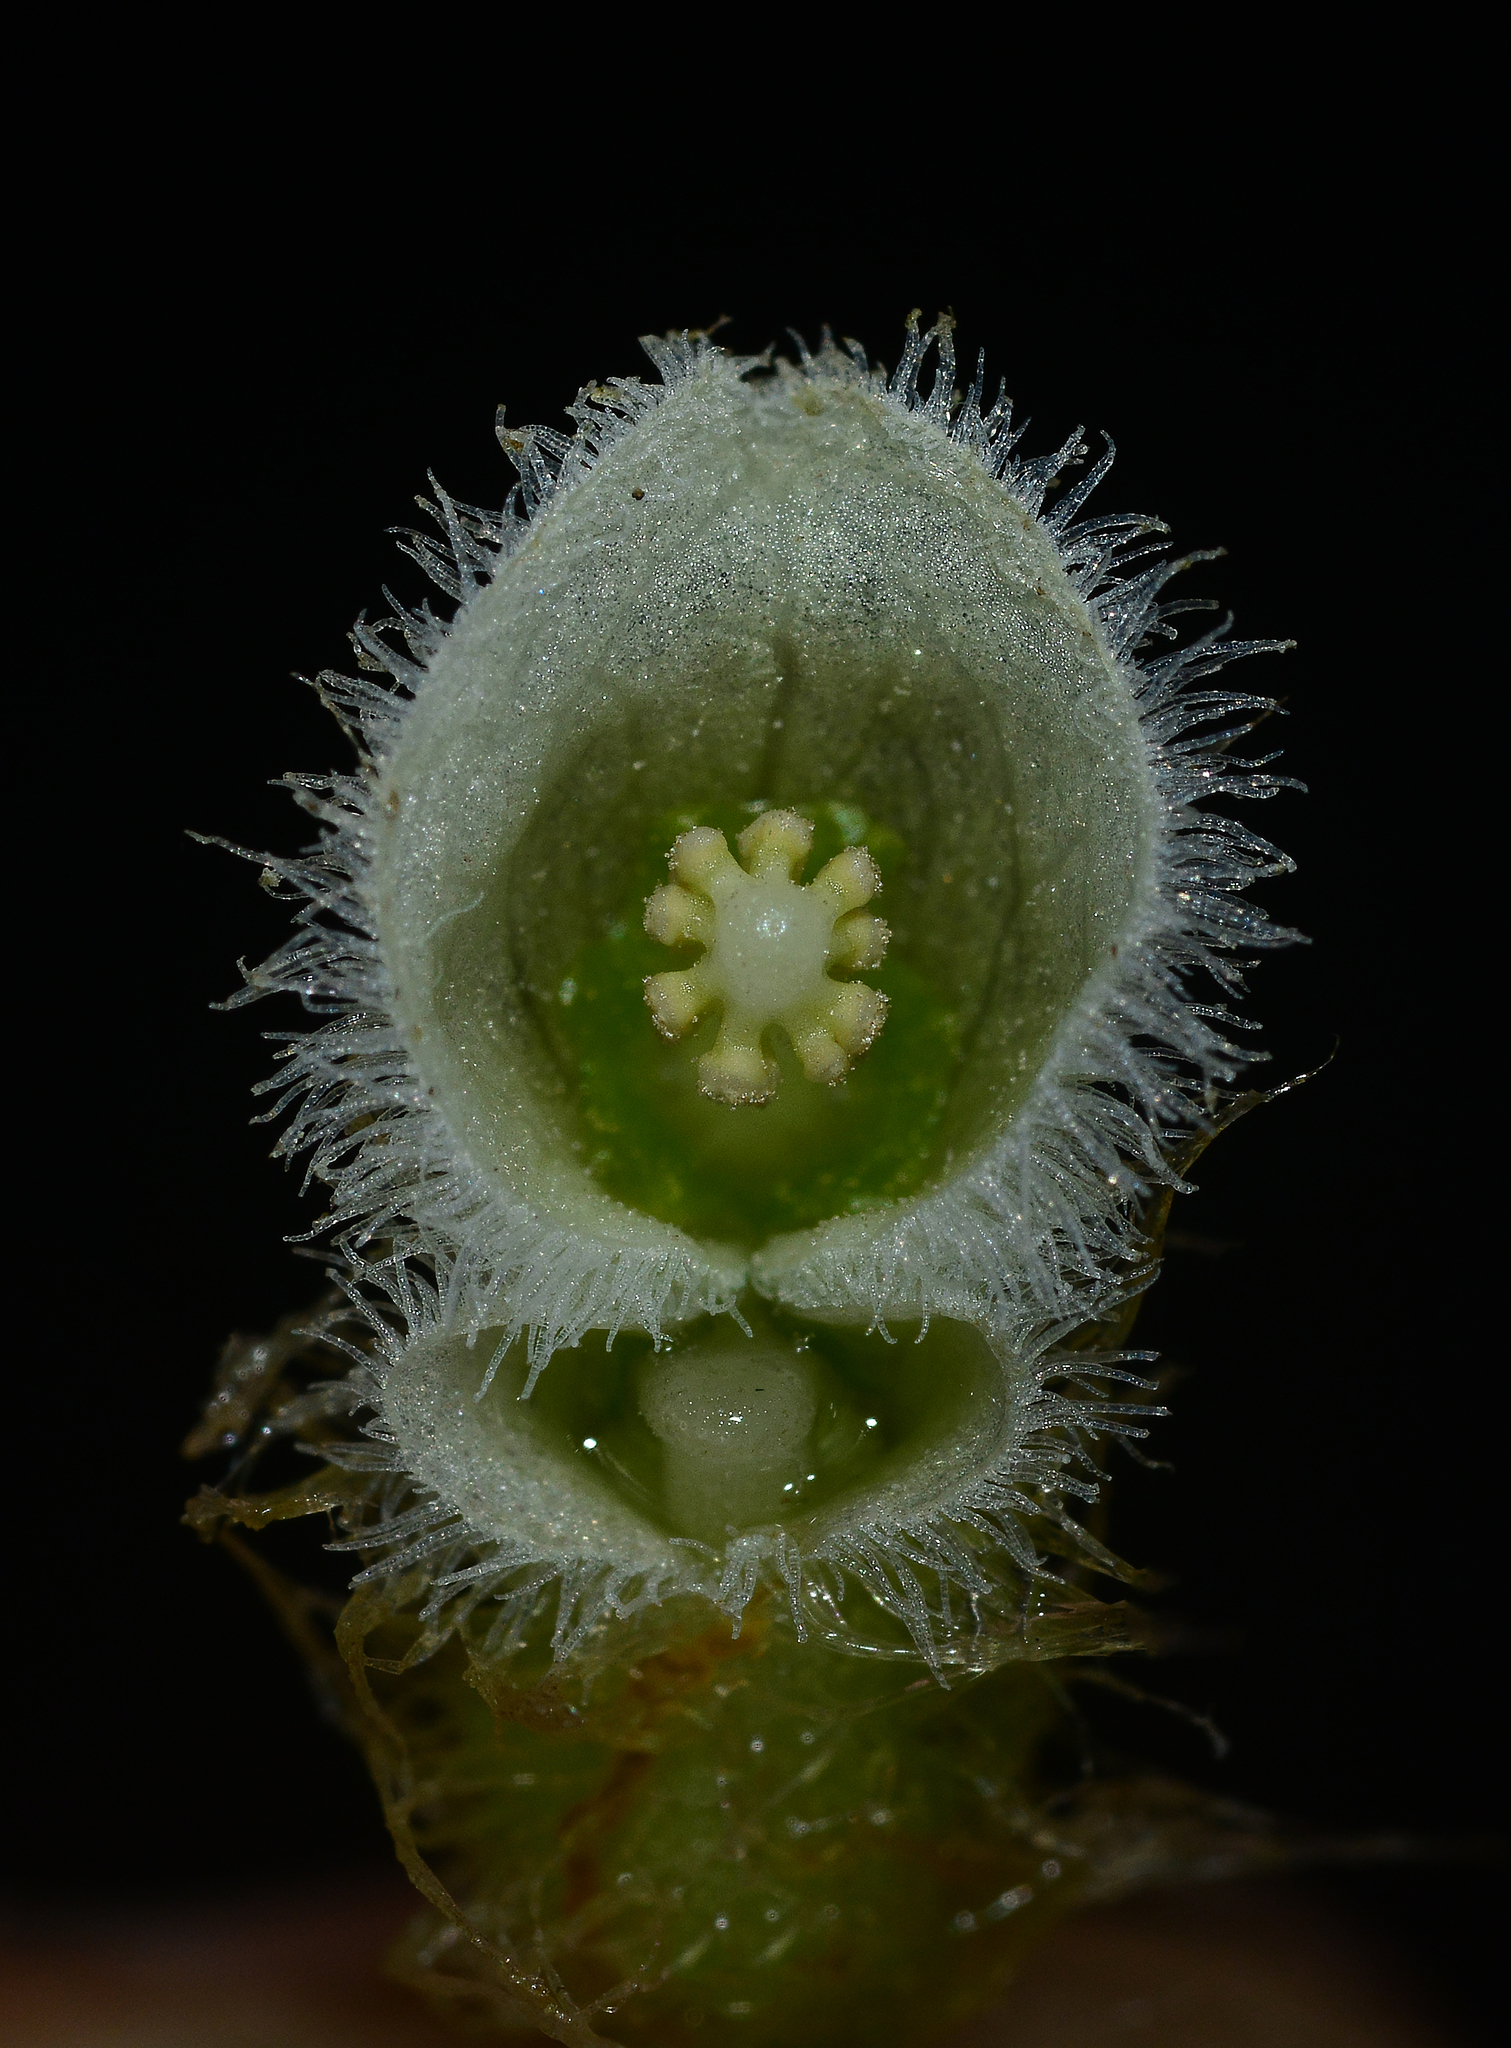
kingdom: Plantae
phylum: Tracheophyta
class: Liliopsida
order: Alismatales
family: Araceae
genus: Pistia
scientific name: Pistia stratiotes
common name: Water lettuce
